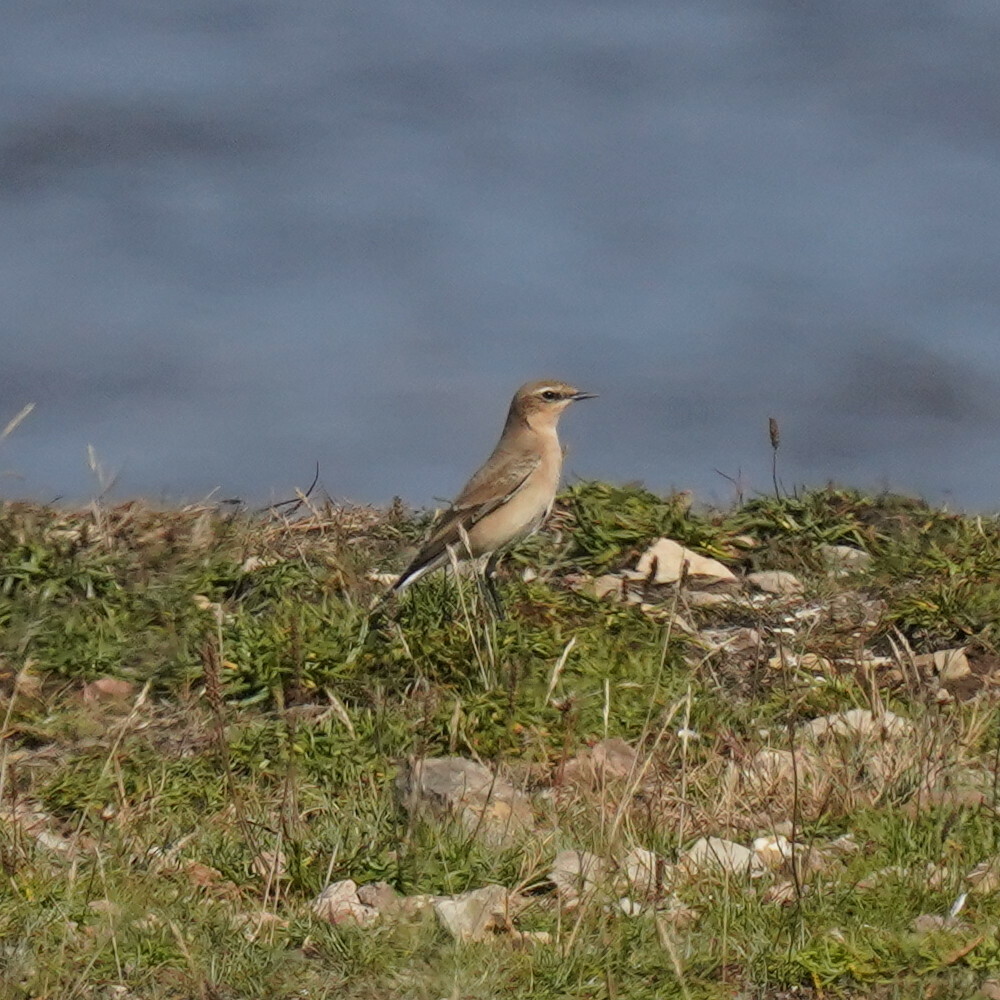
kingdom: Animalia
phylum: Chordata
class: Aves
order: Passeriformes
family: Muscicapidae
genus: Oenanthe
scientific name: Oenanthe oenanthe
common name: Northern wheatear
